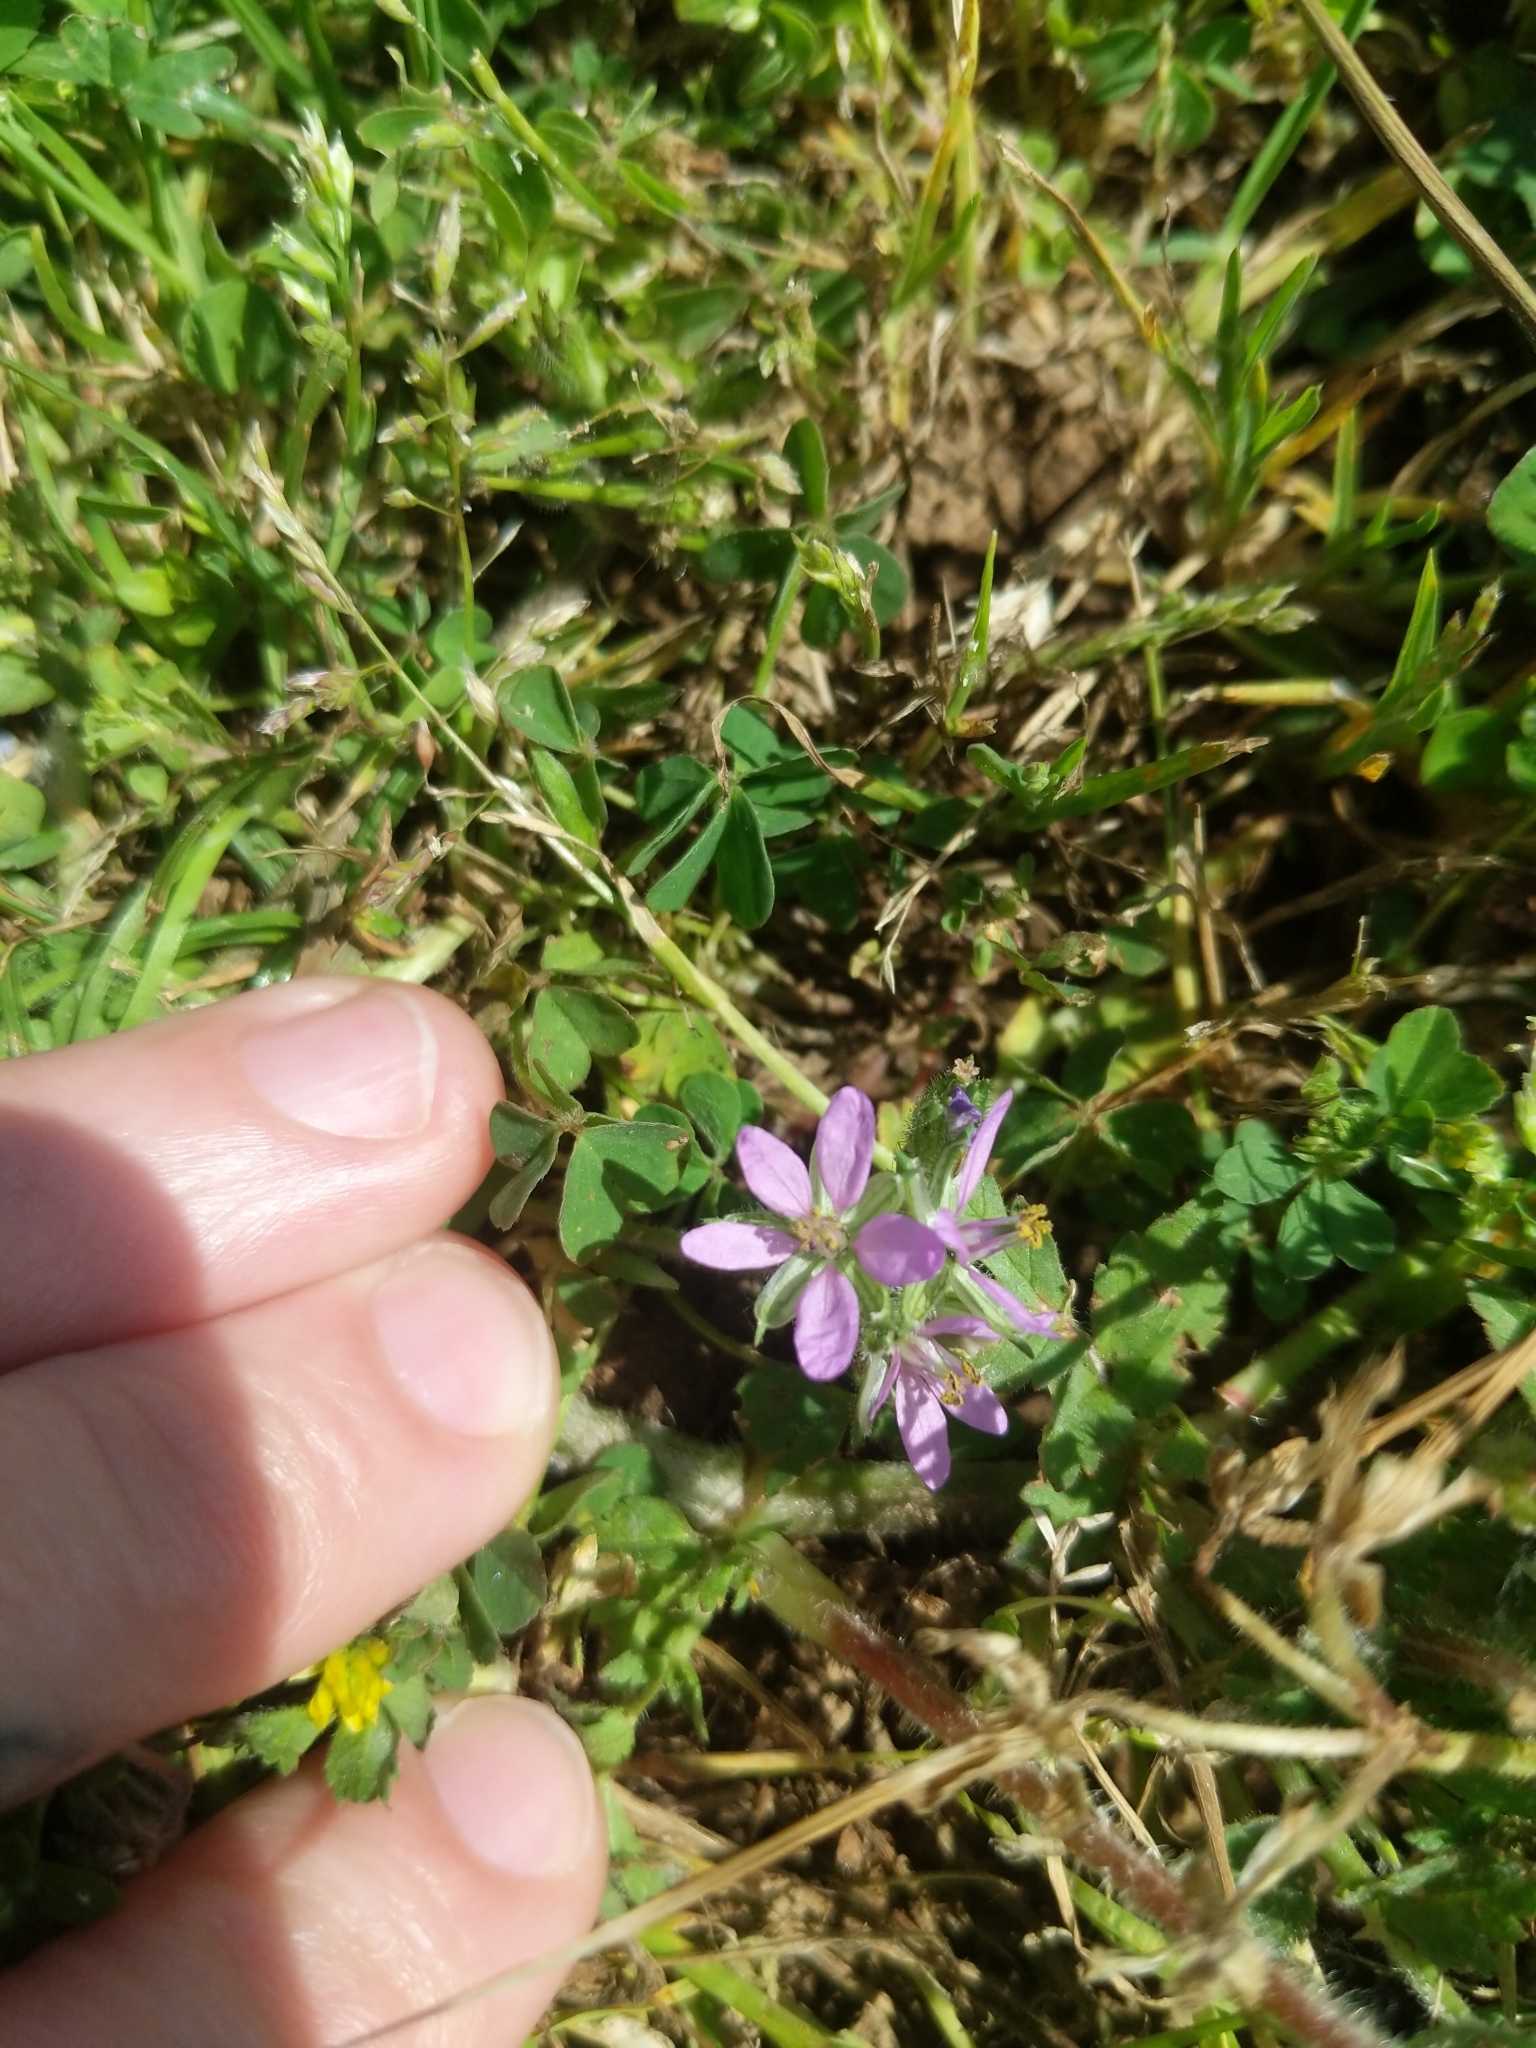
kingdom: Plantae
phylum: Tracheophyta
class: Magnoliopsida
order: Geraniales
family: Geraniaceae
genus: Erodium
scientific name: Erodium moschatum
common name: Musk stork's-bill
